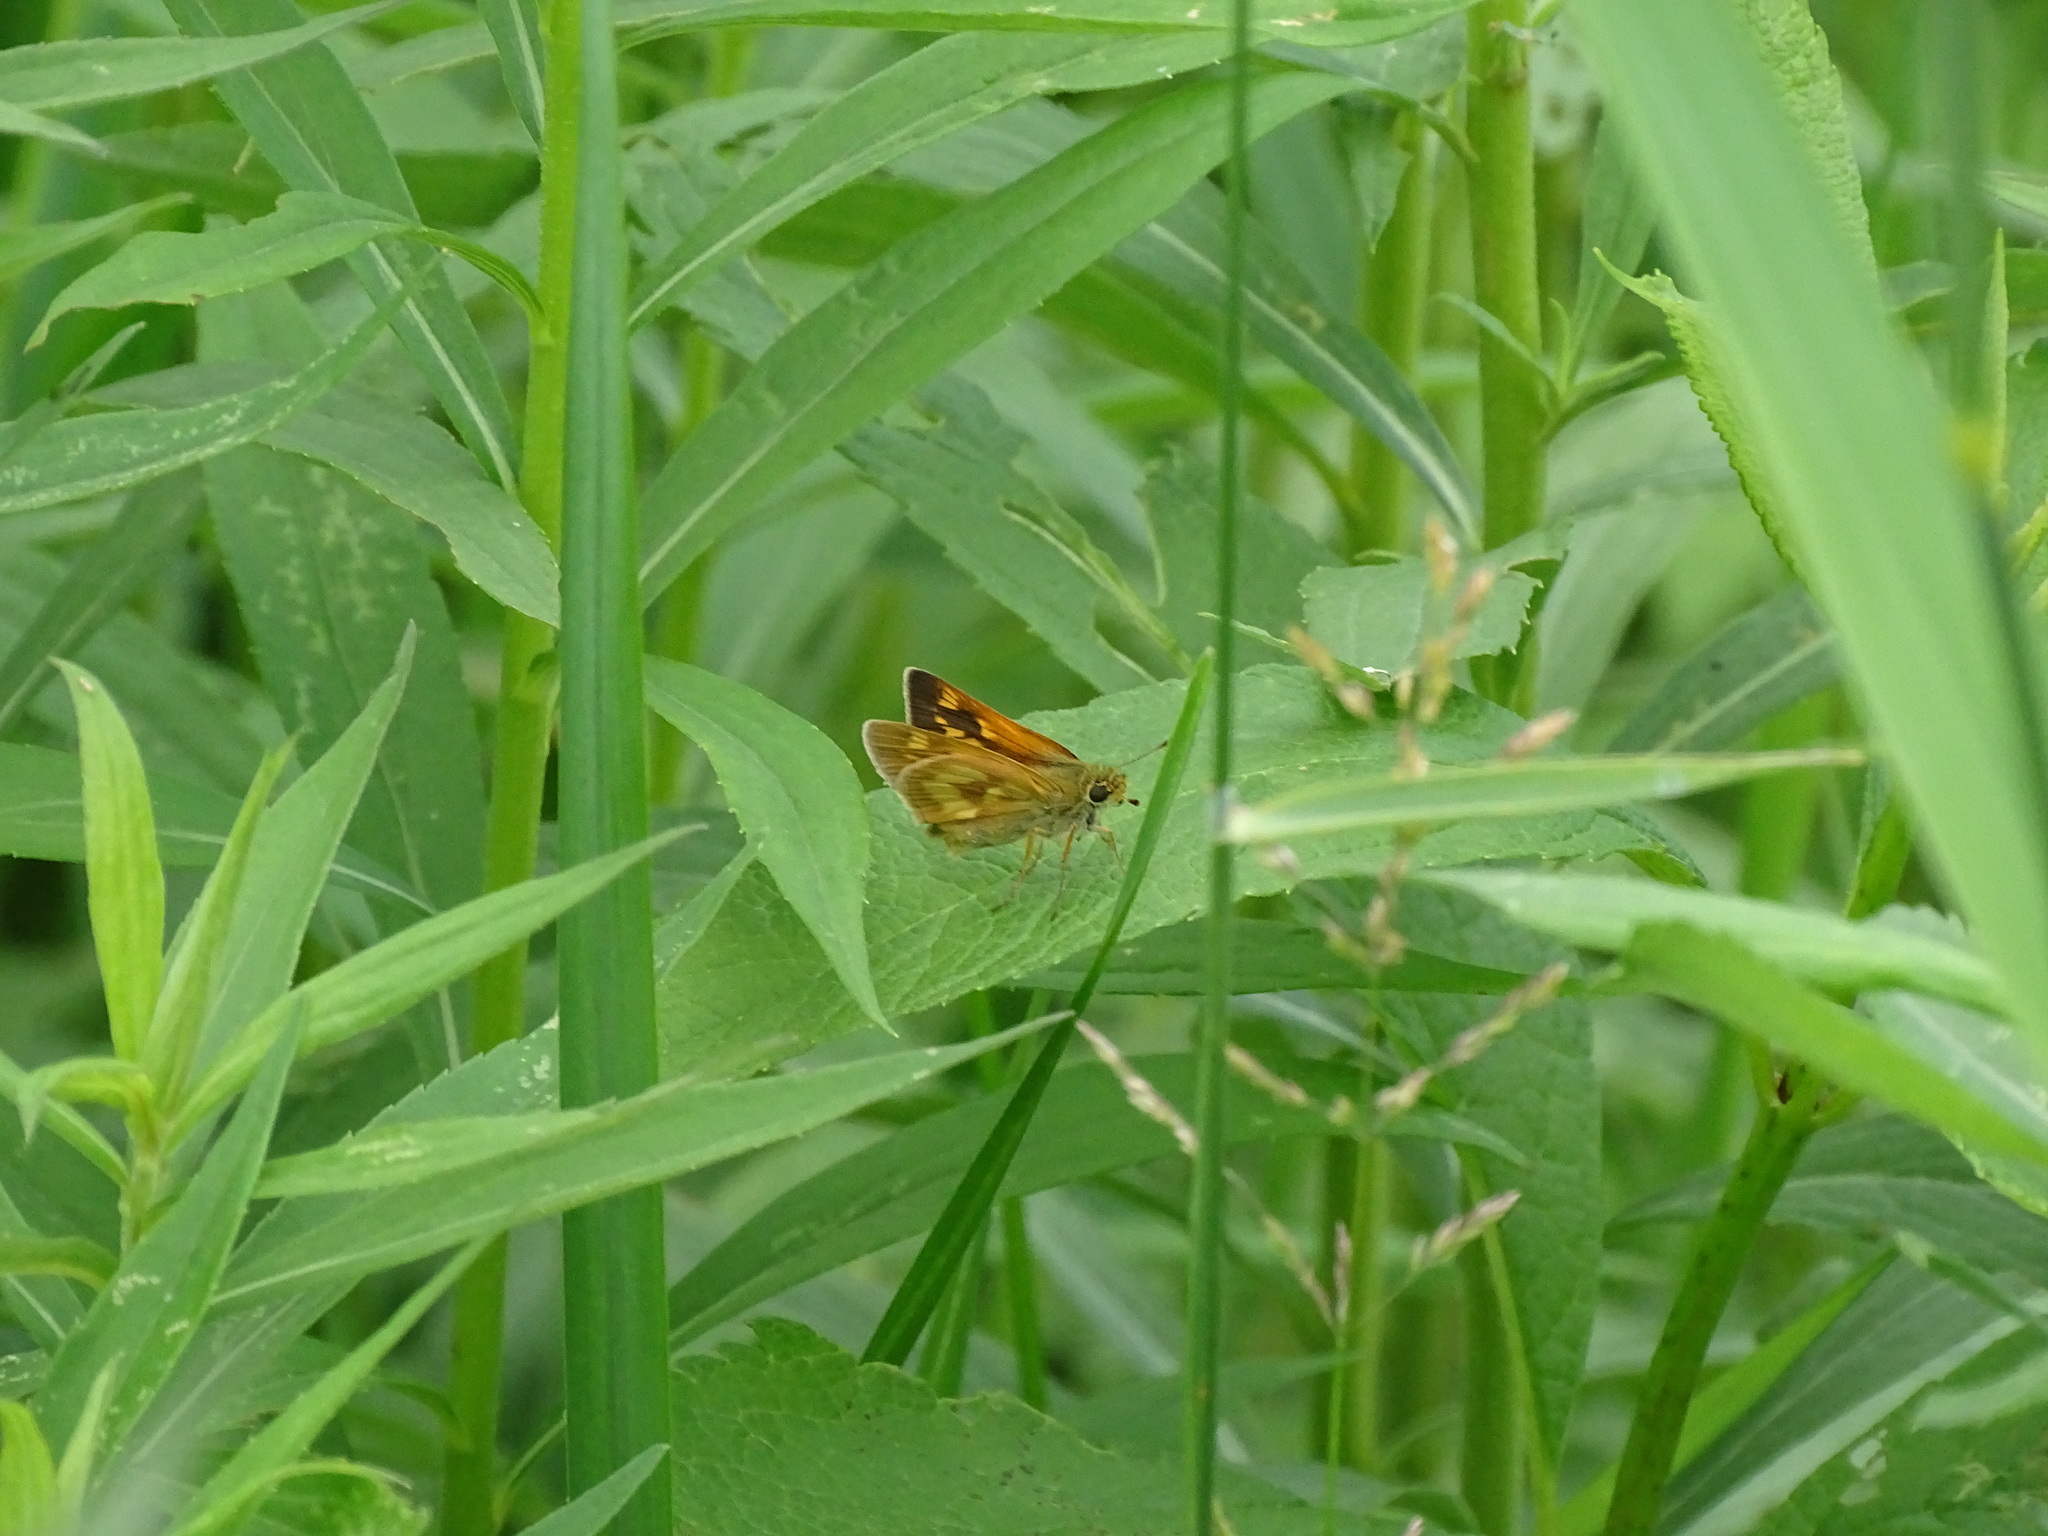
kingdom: Animalia
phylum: Arthropoda
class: Insecta
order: Lepidoptera
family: Hesperiidae
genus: Polites
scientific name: Polites mystic
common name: Long dash
